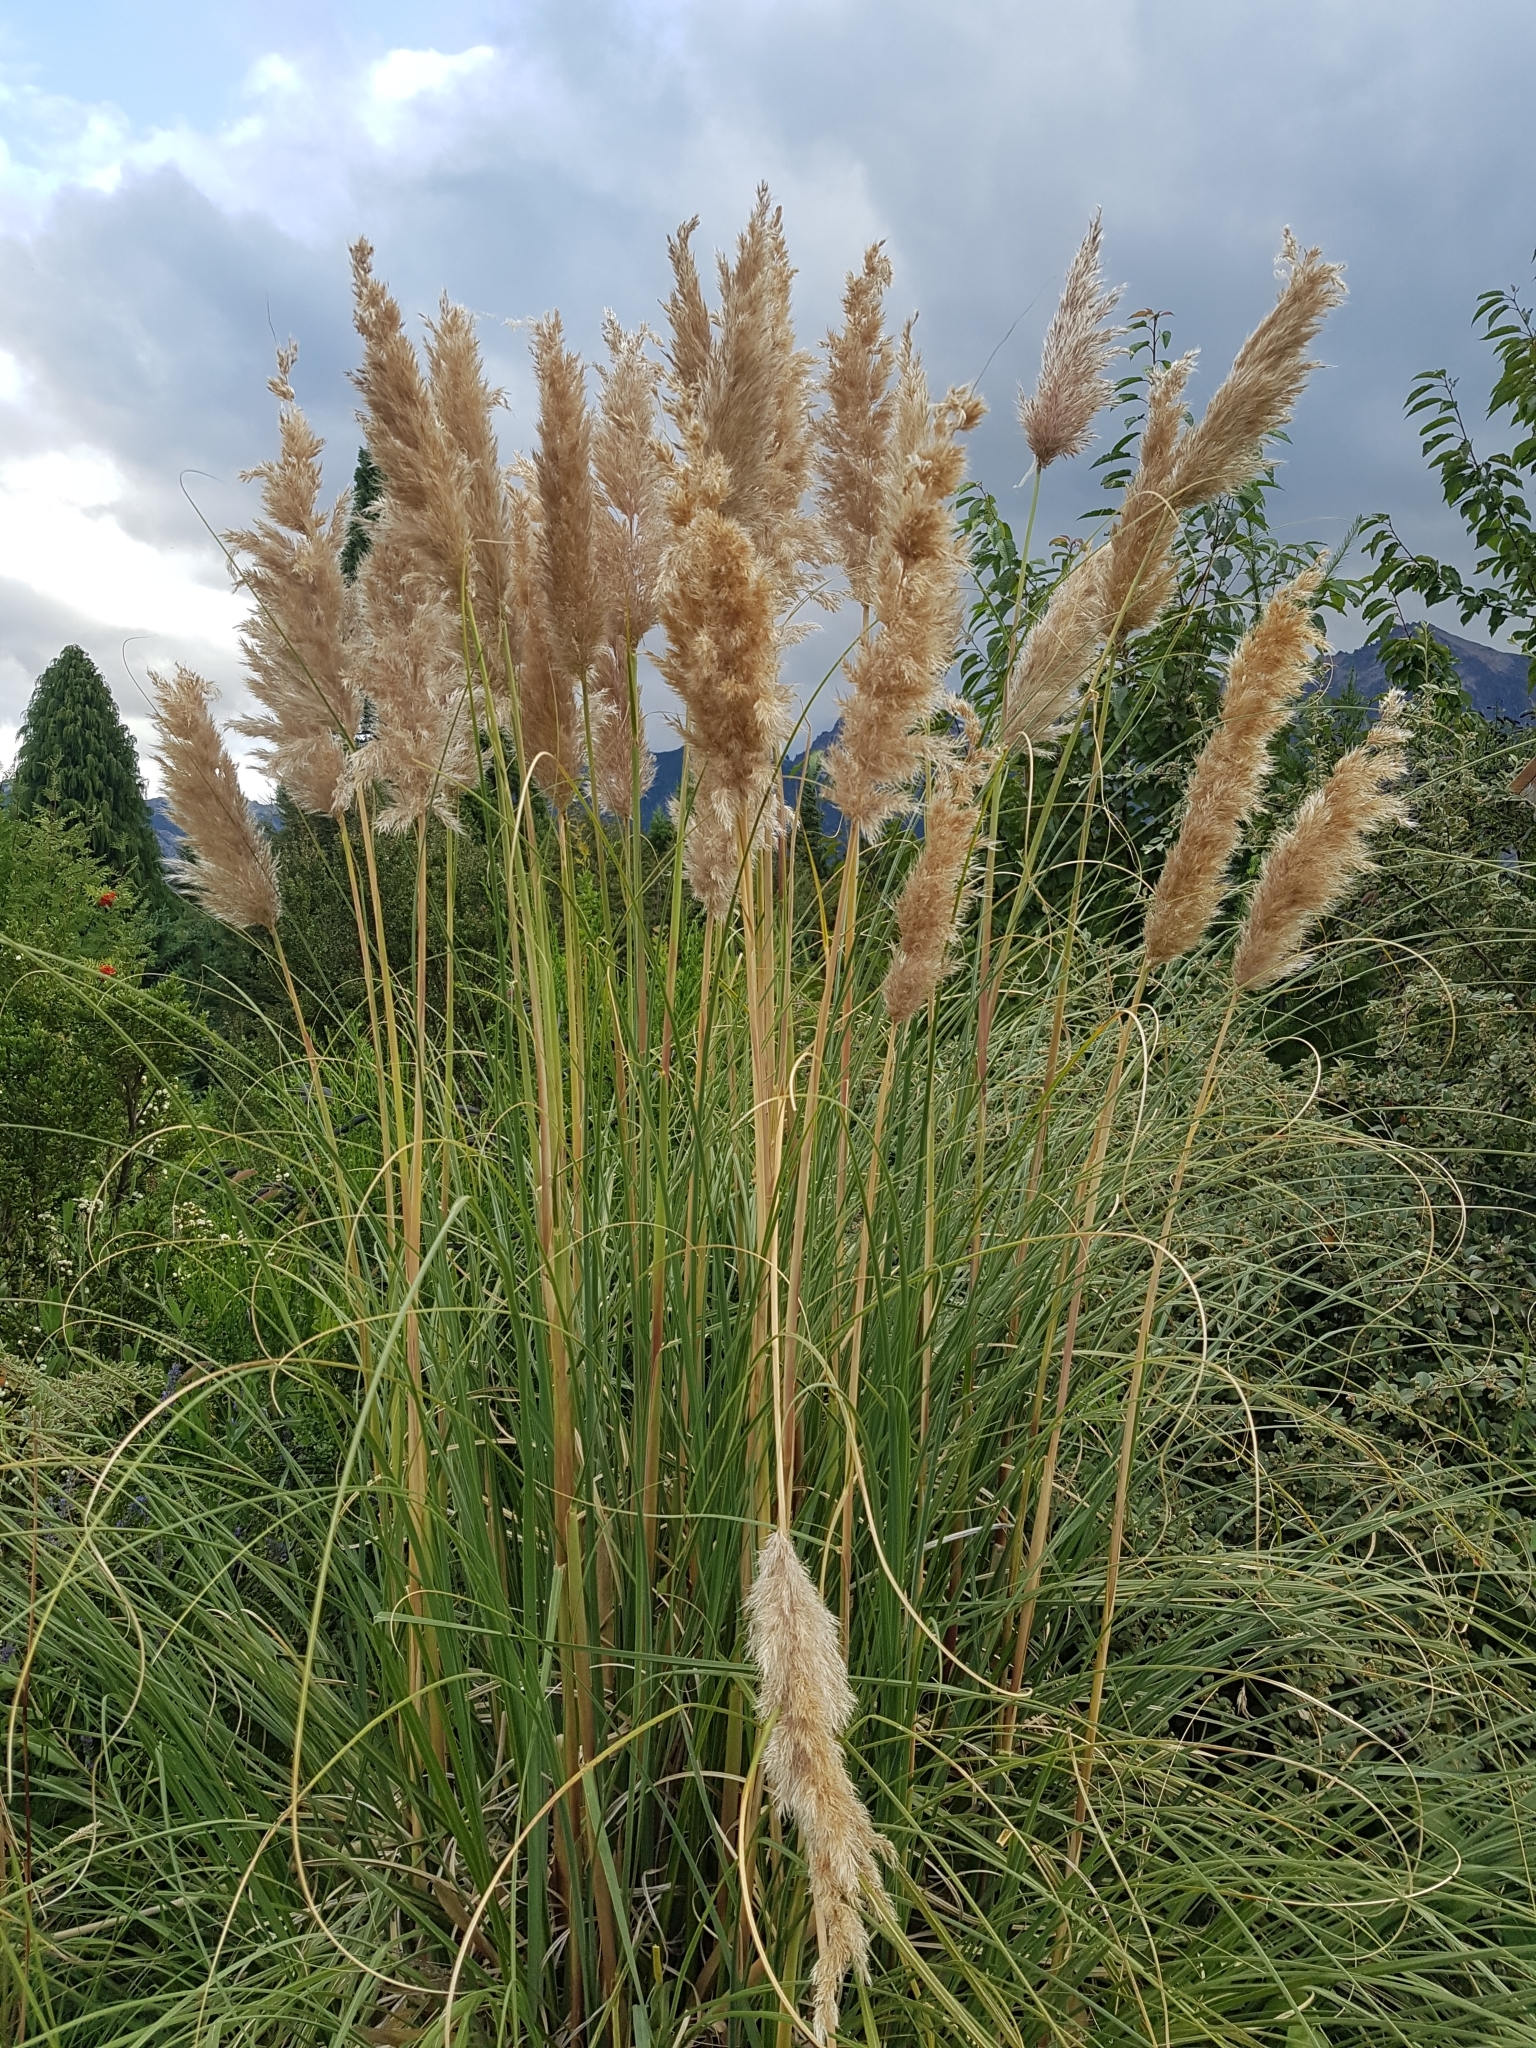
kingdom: Plantae
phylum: Tracheophyta
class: Liliopsida
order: Poales
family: Poaceae
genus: Cortaderia
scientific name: Cortaderia selloana
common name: Uruguayan pampas grass
